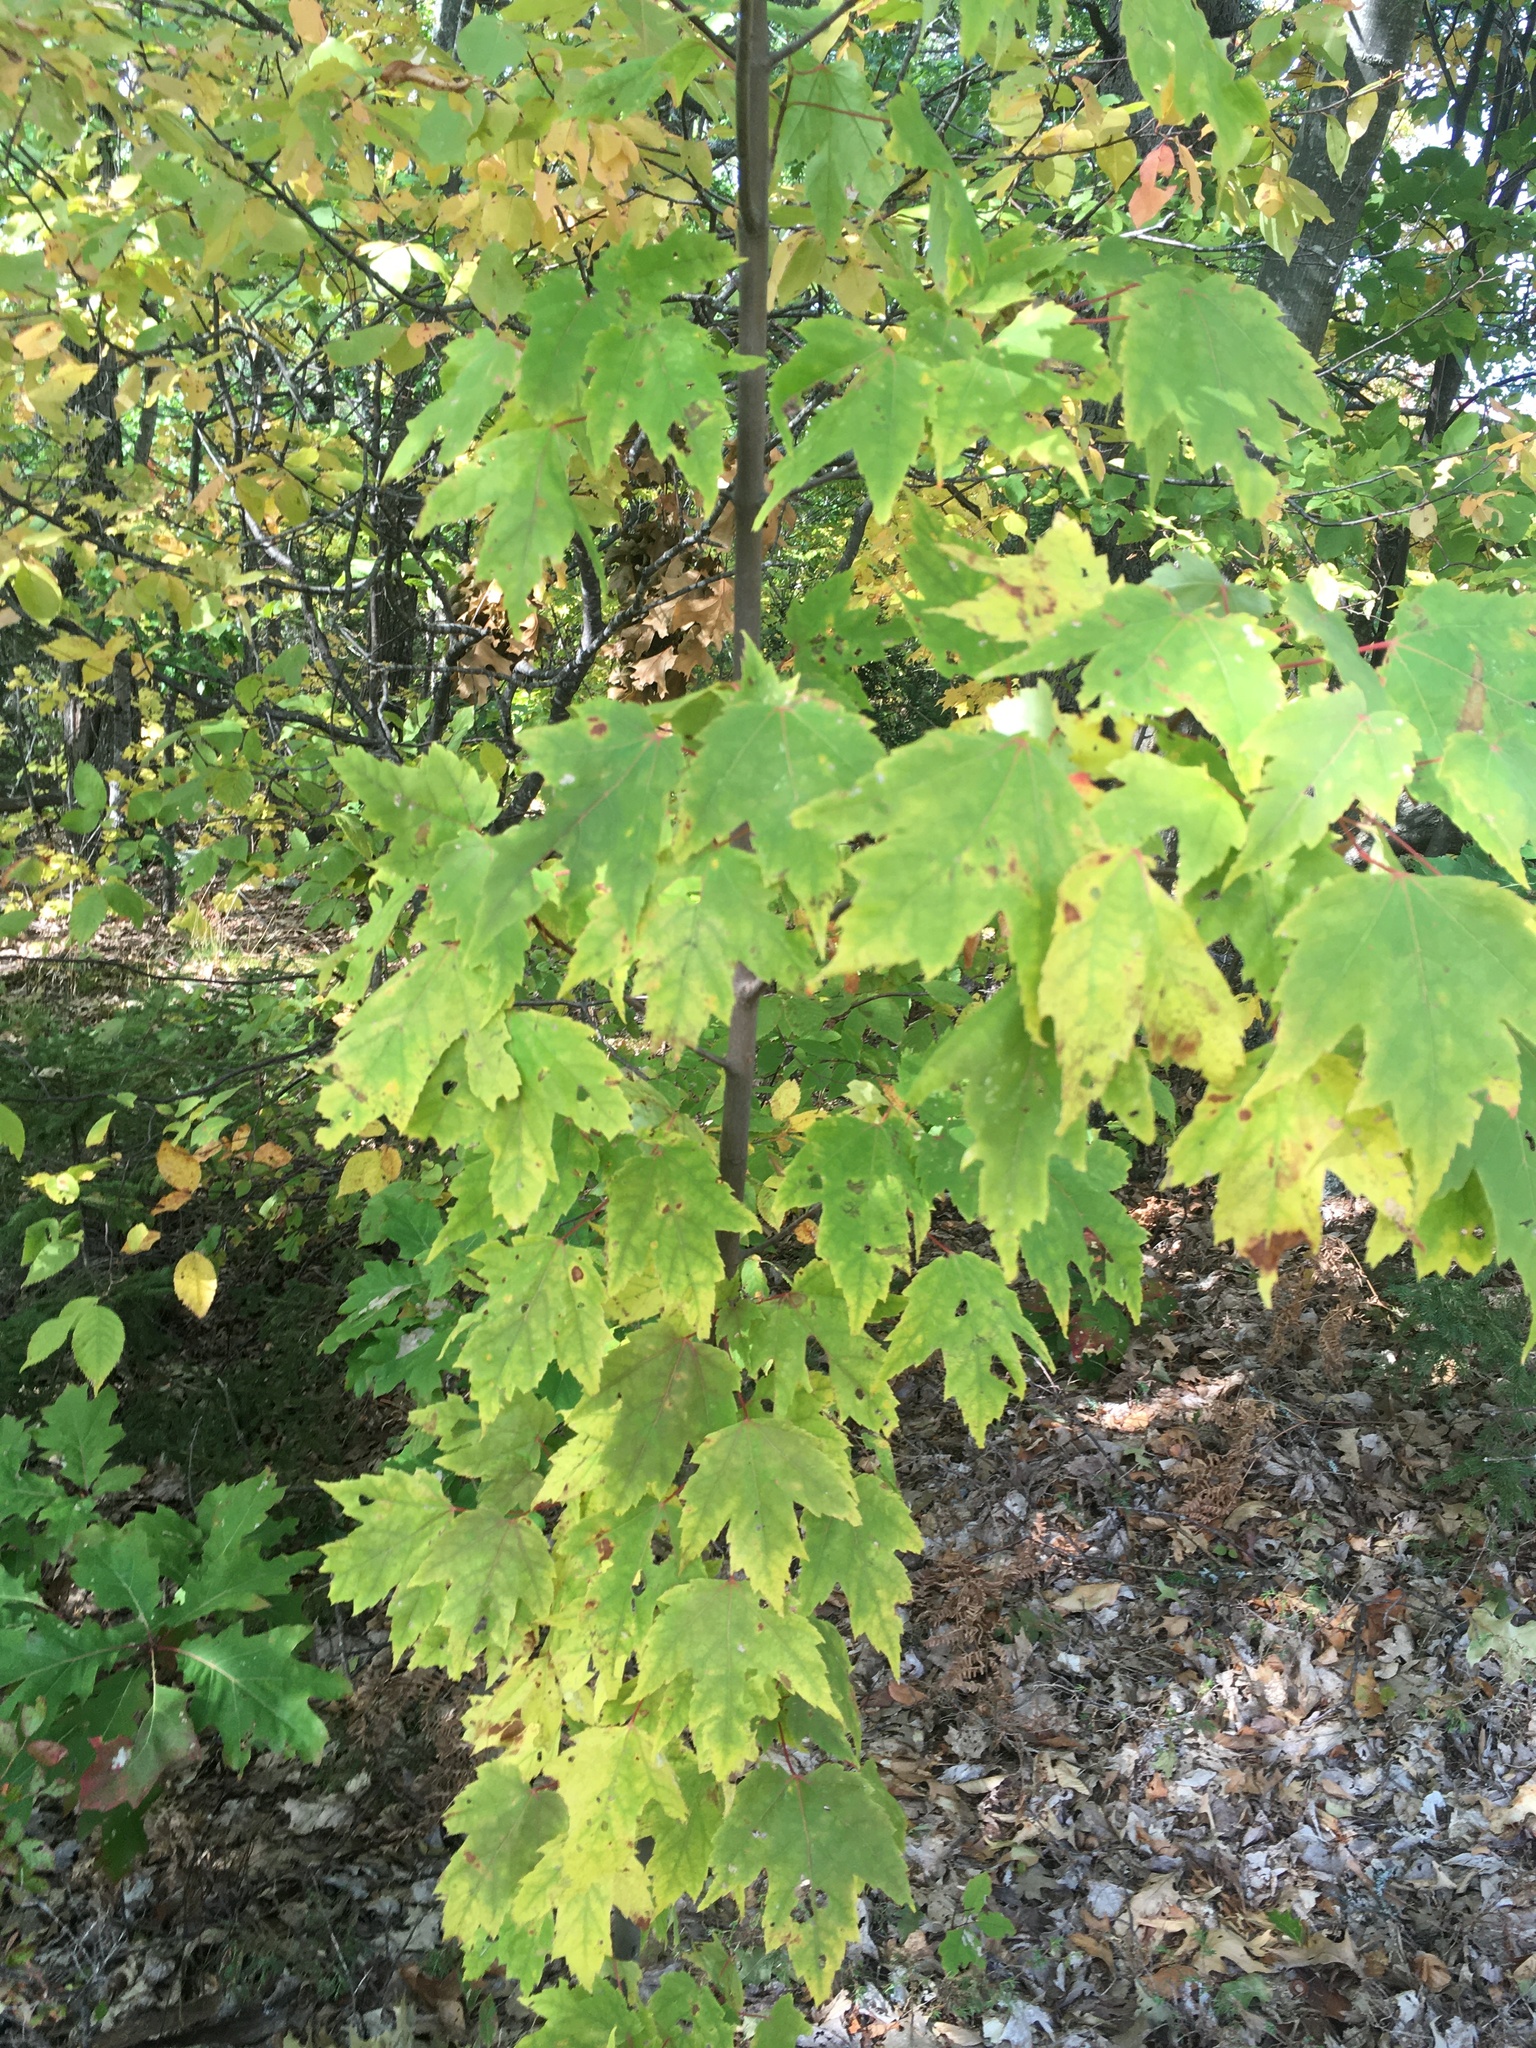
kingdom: Plantae
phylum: Tracheophyta
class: Magnoliopsida
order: Sapindales
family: Sapindaceae
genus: Acer
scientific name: Acer rubrum
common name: Red maple
